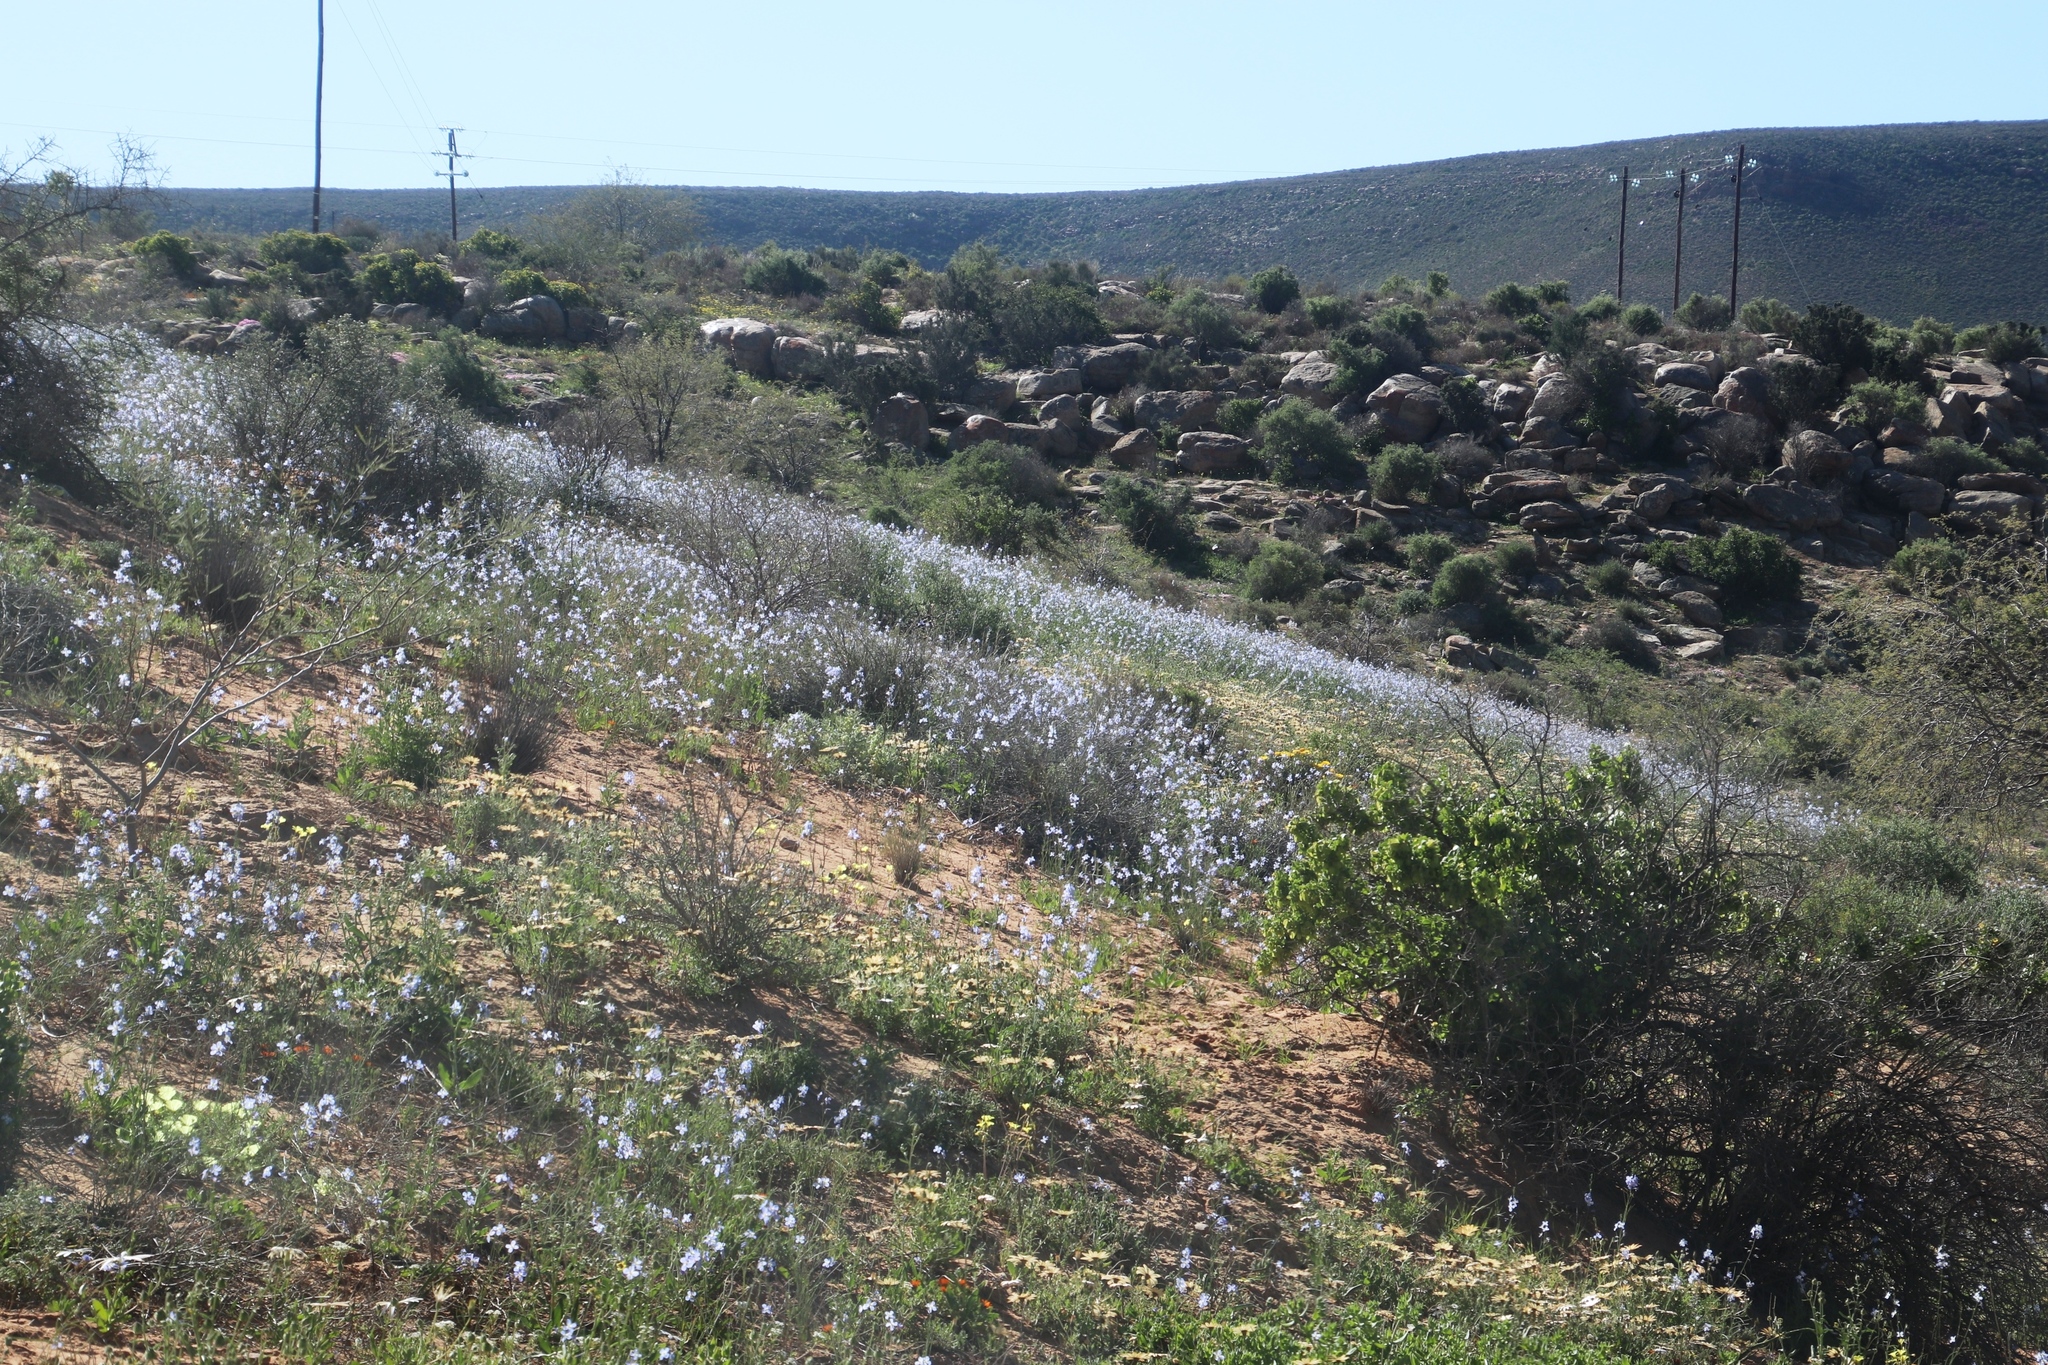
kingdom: Plantae
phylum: Tracheophyta
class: Magnoliopsida
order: Brassicales
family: Brassicaceae
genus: Heliophila
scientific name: Heliophila agtertuinensis
